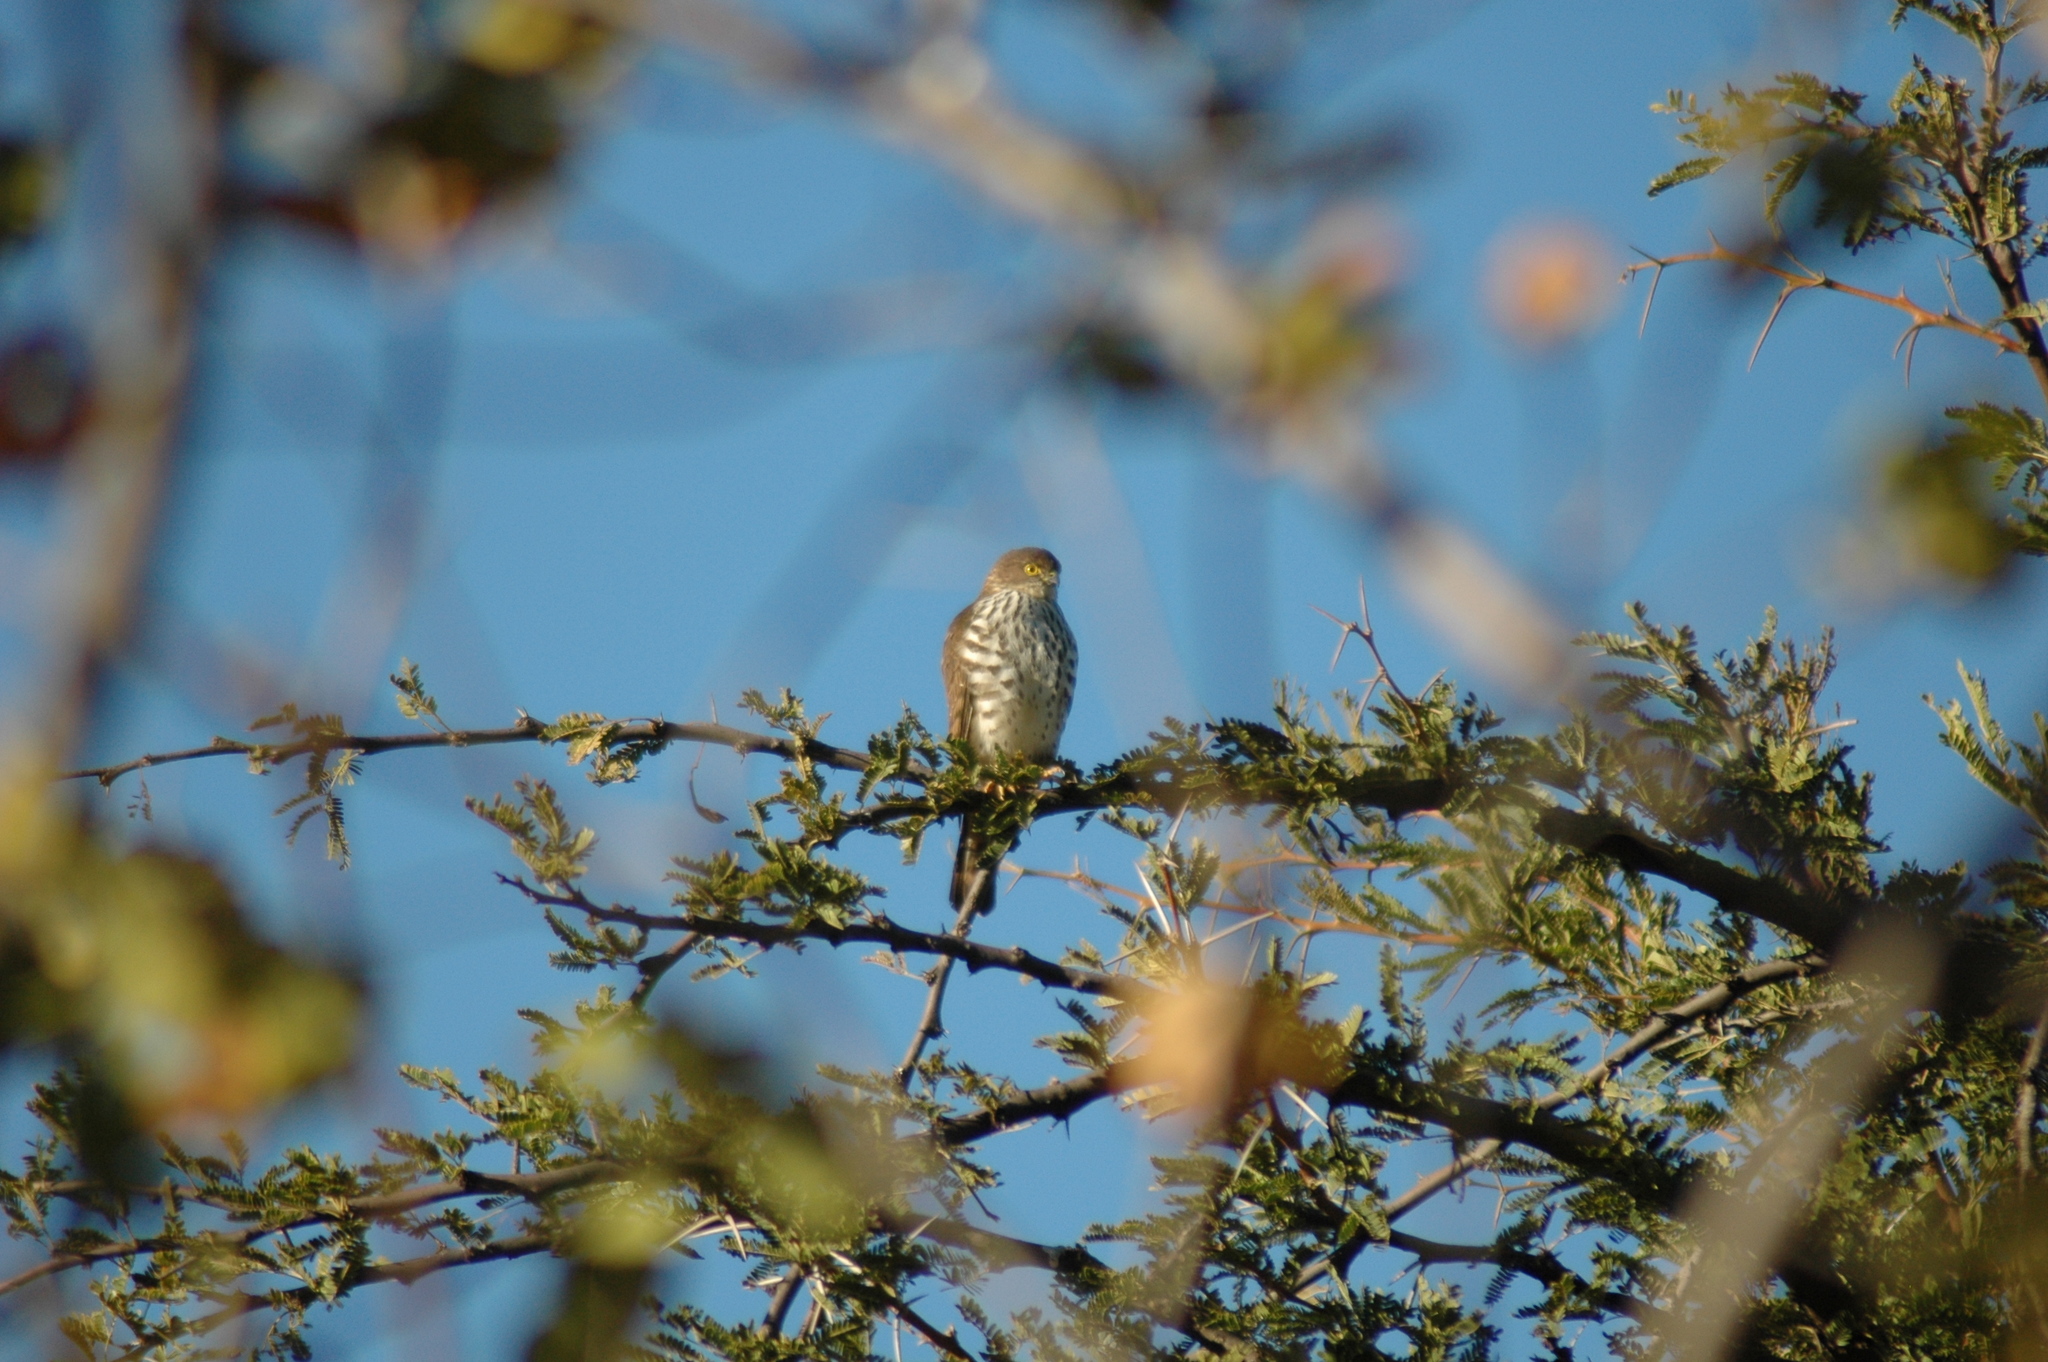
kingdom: Animalia
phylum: Chordata
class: Aves
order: Accipitriformes
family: Accipitridae
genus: Accipiter
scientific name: Accipiter badius
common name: Shikra
